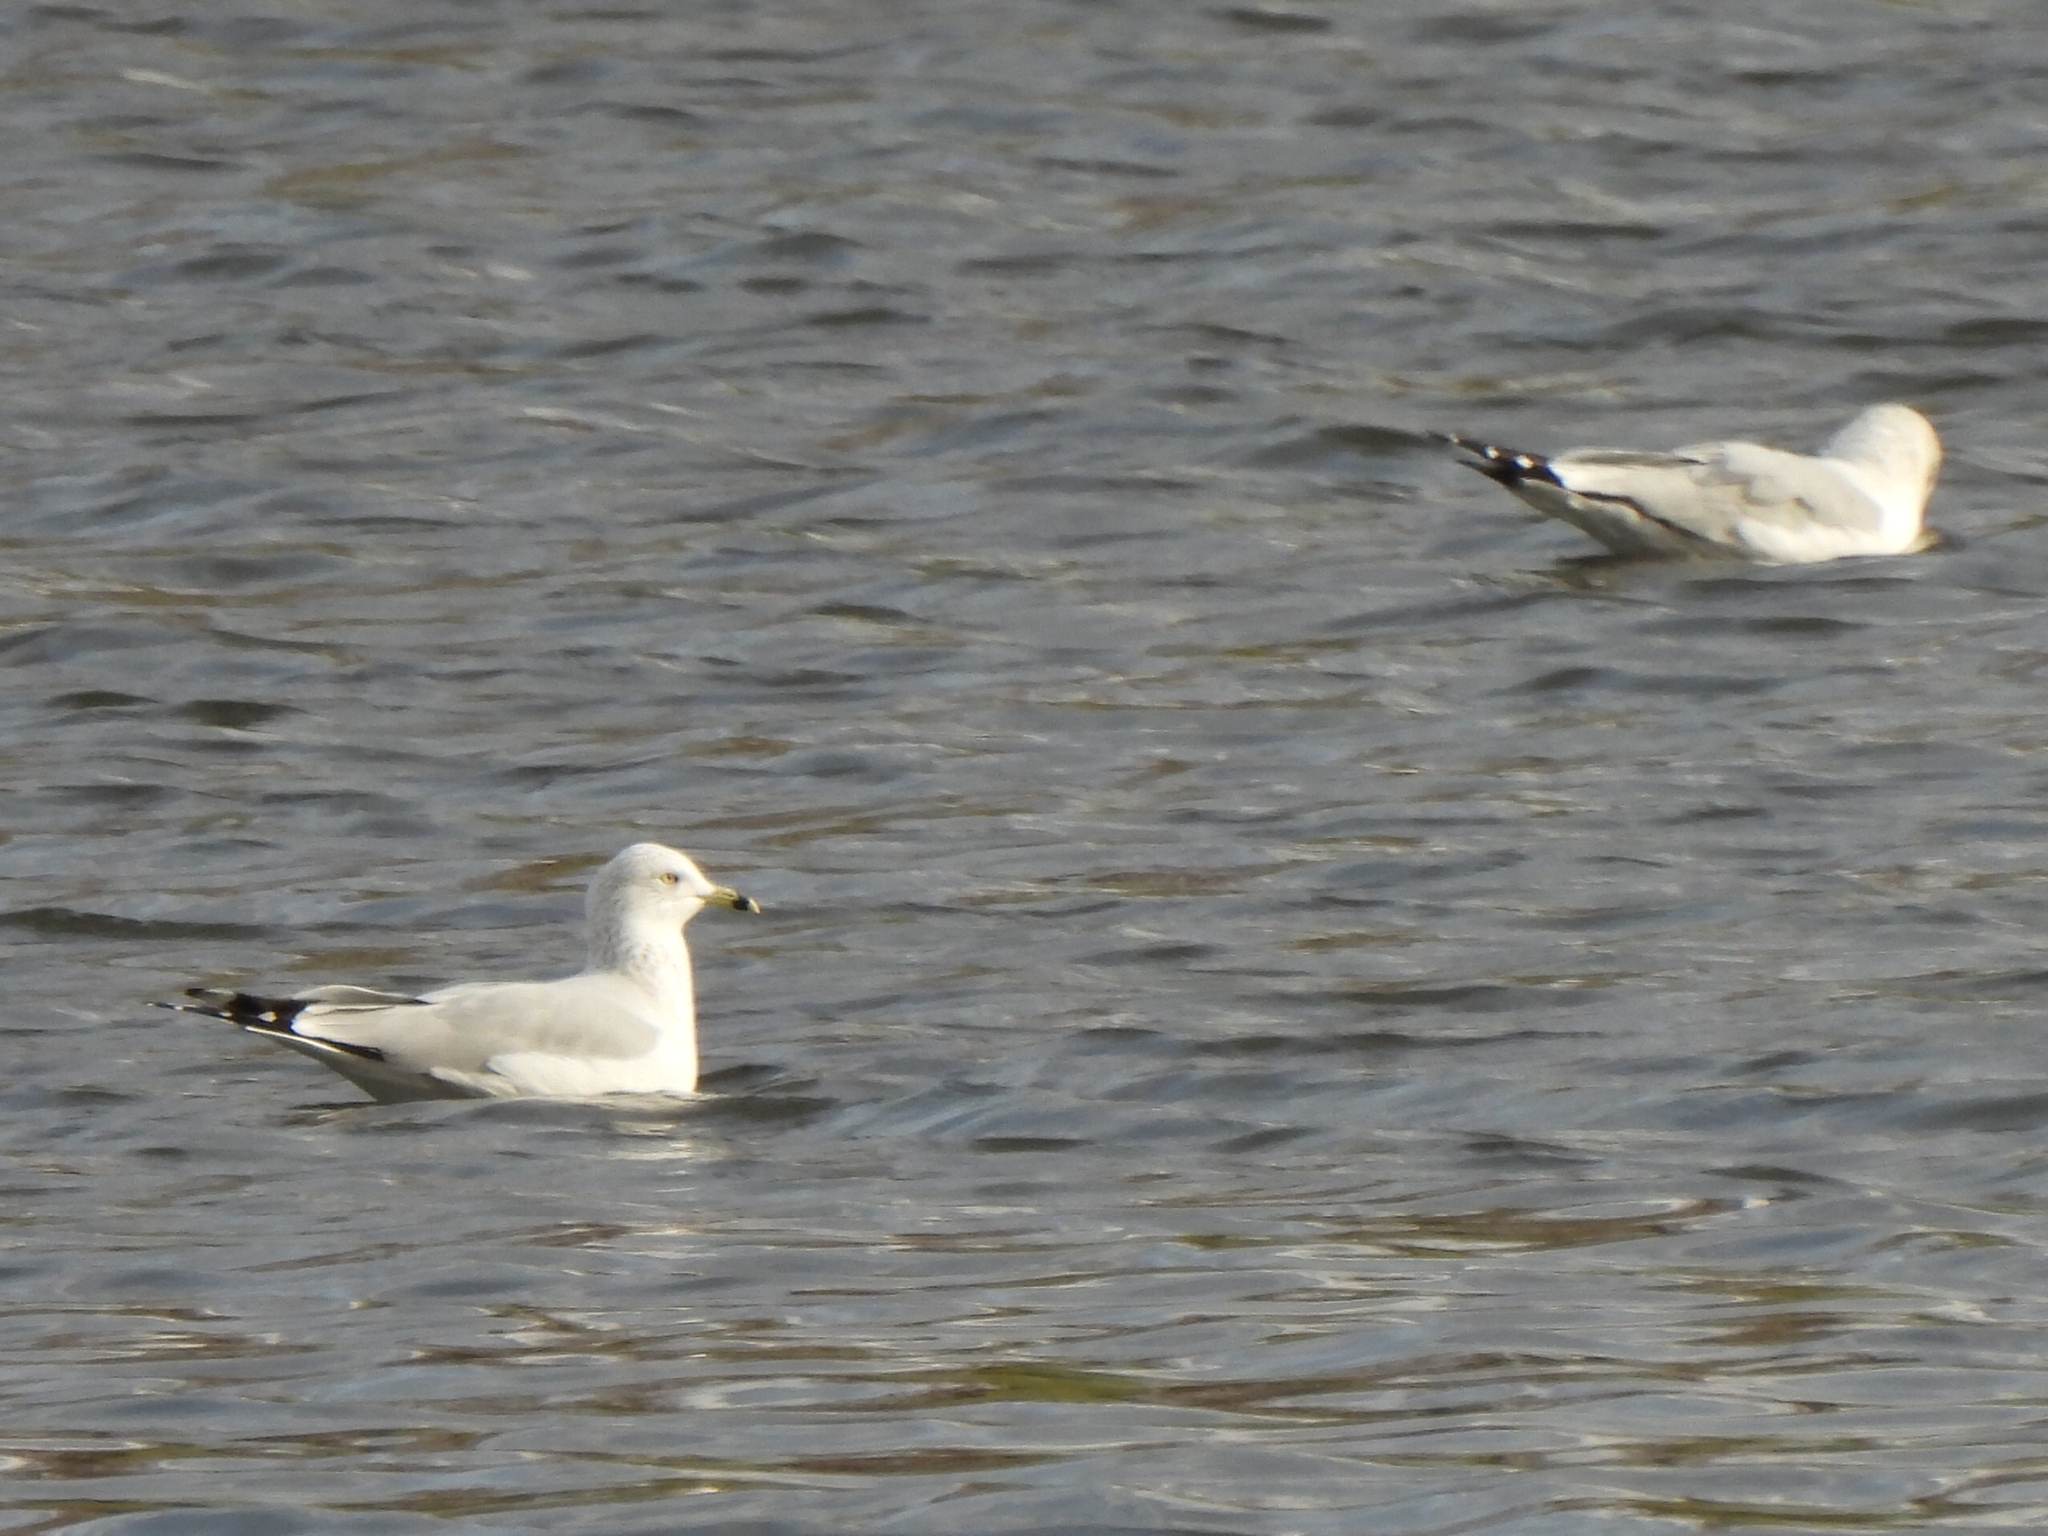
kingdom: Animalia
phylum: Chordata
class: Aves
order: Charadriiformes
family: Laridae
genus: Larus
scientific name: Larus delawarensis
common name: Ring-billed gull
